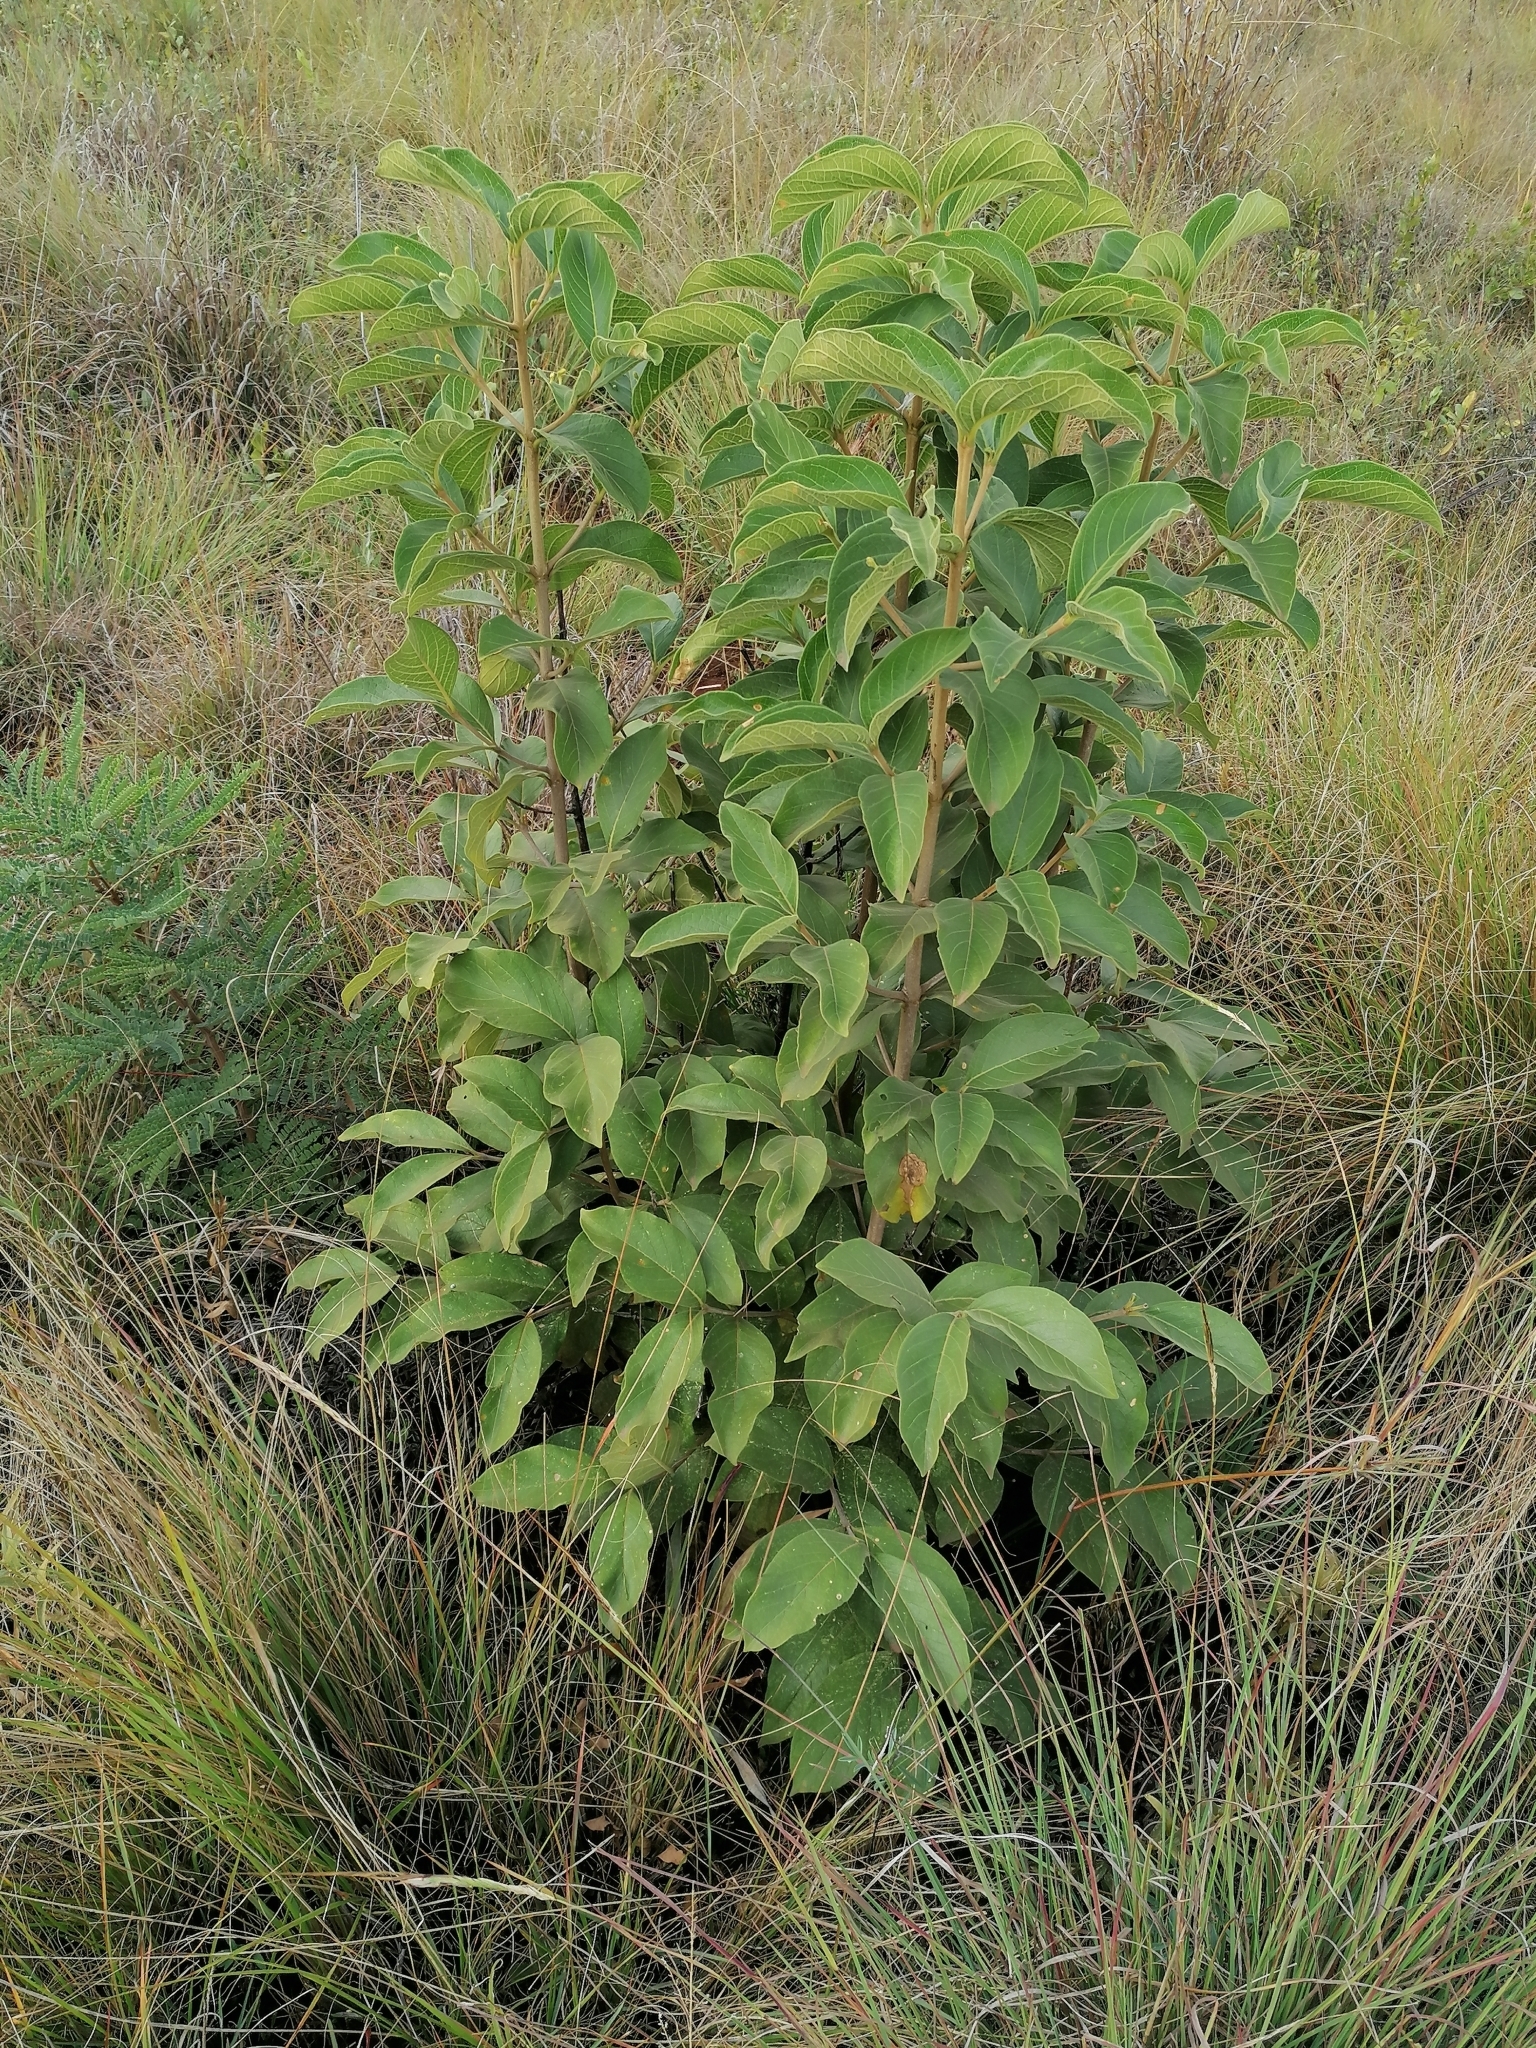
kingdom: Plantae
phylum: Tracheophyta
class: Magnoliopsida
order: Gentianales
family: Rubiaceae
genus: Vangueria
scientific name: Vangueria infausta
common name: Medlar
